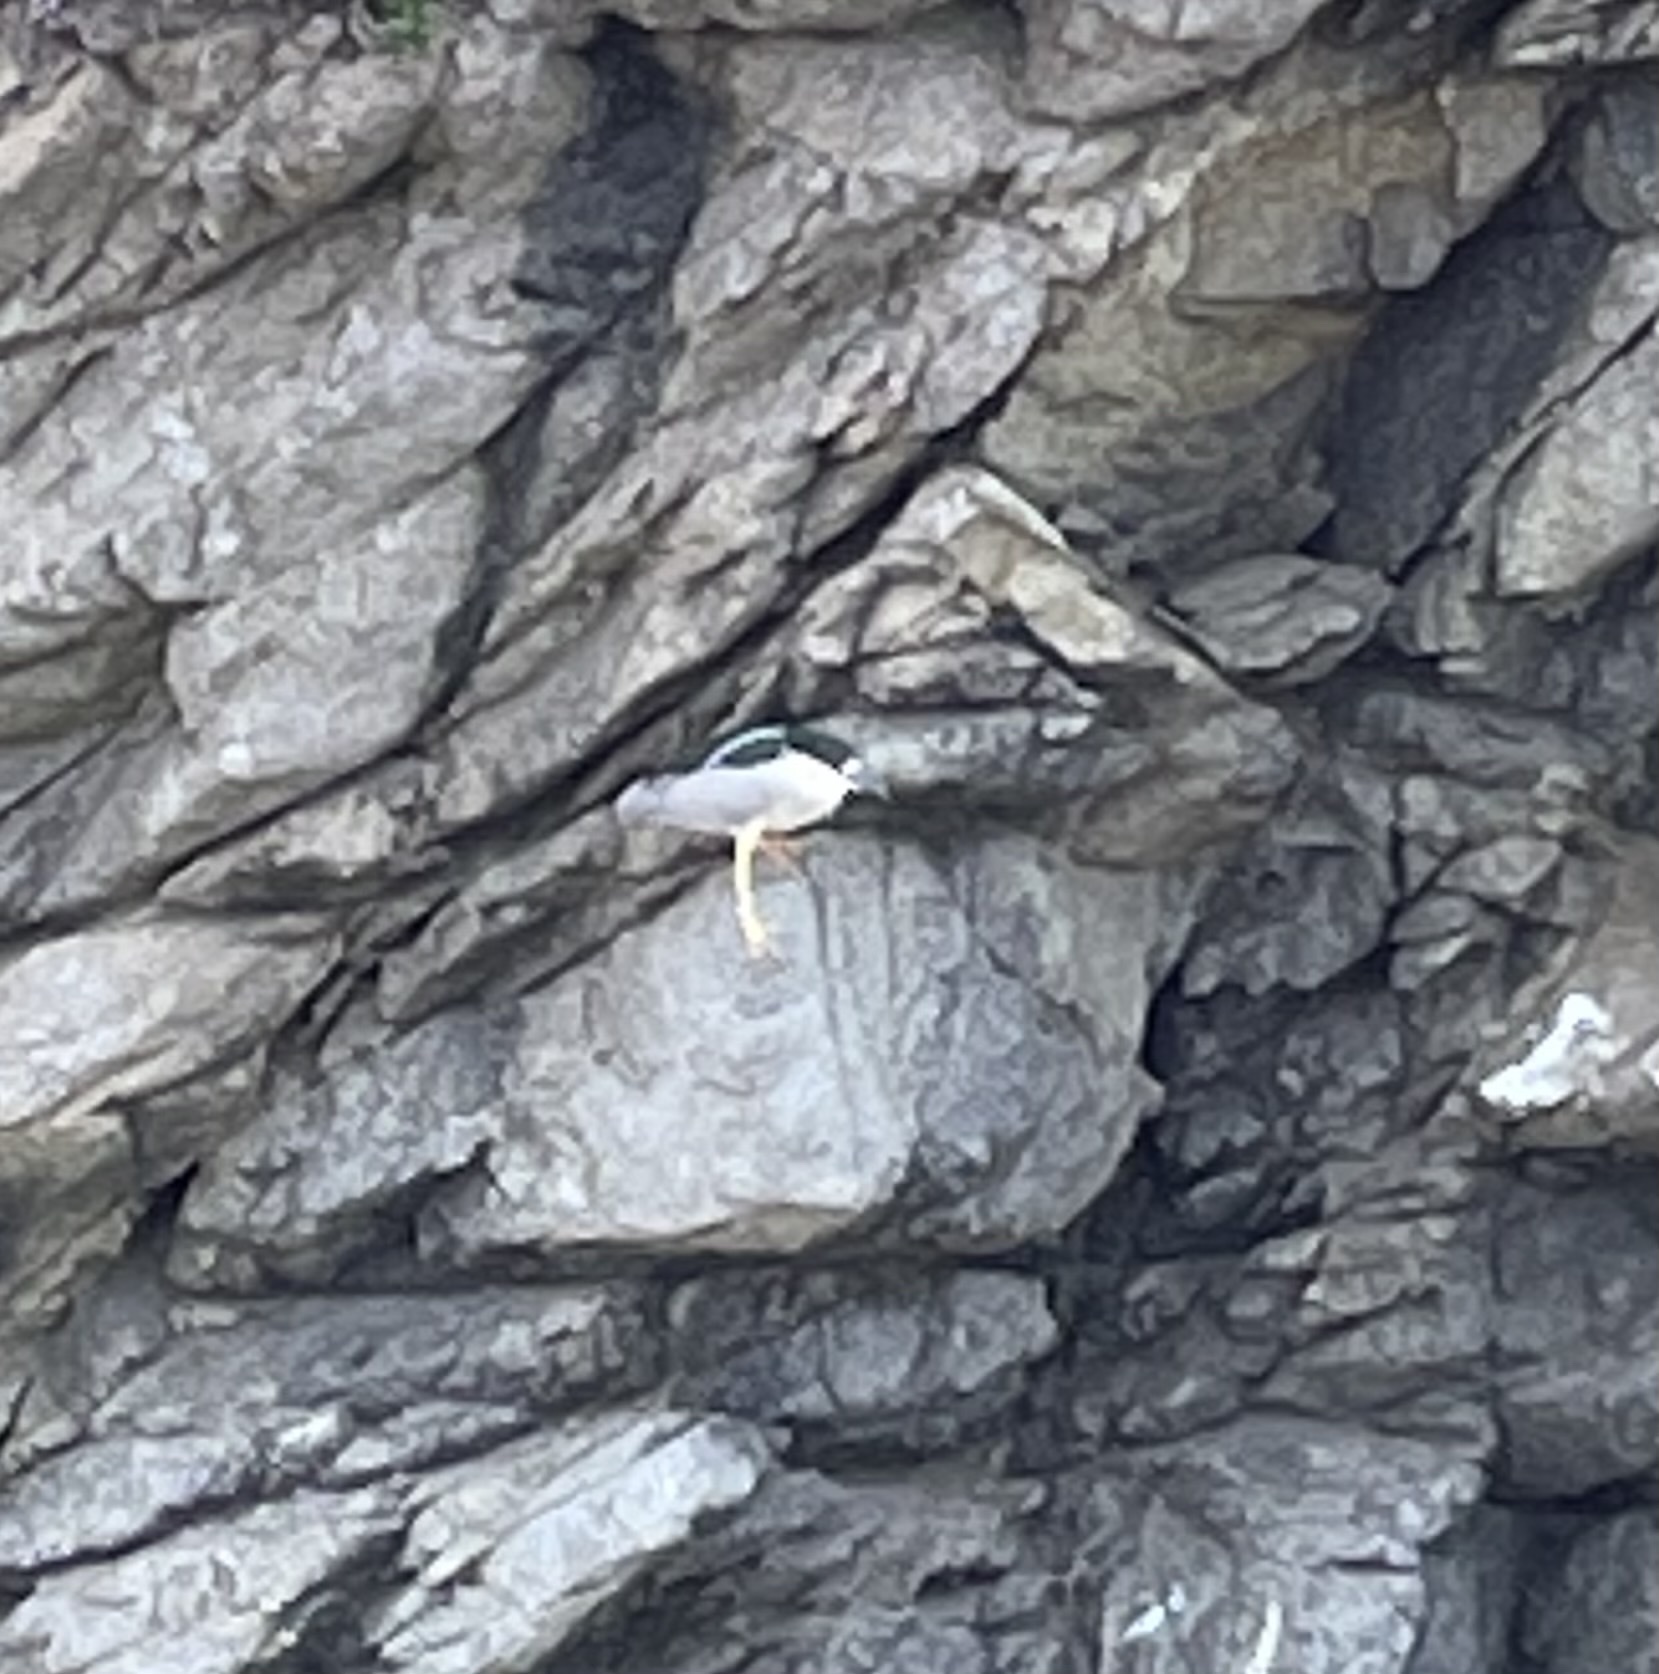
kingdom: Animalia
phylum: Chordata
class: Aves
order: Pelecaniformes
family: Ardeidae
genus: Nycticorax
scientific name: Nycticorax nycticorax
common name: Black-crowned night heron
